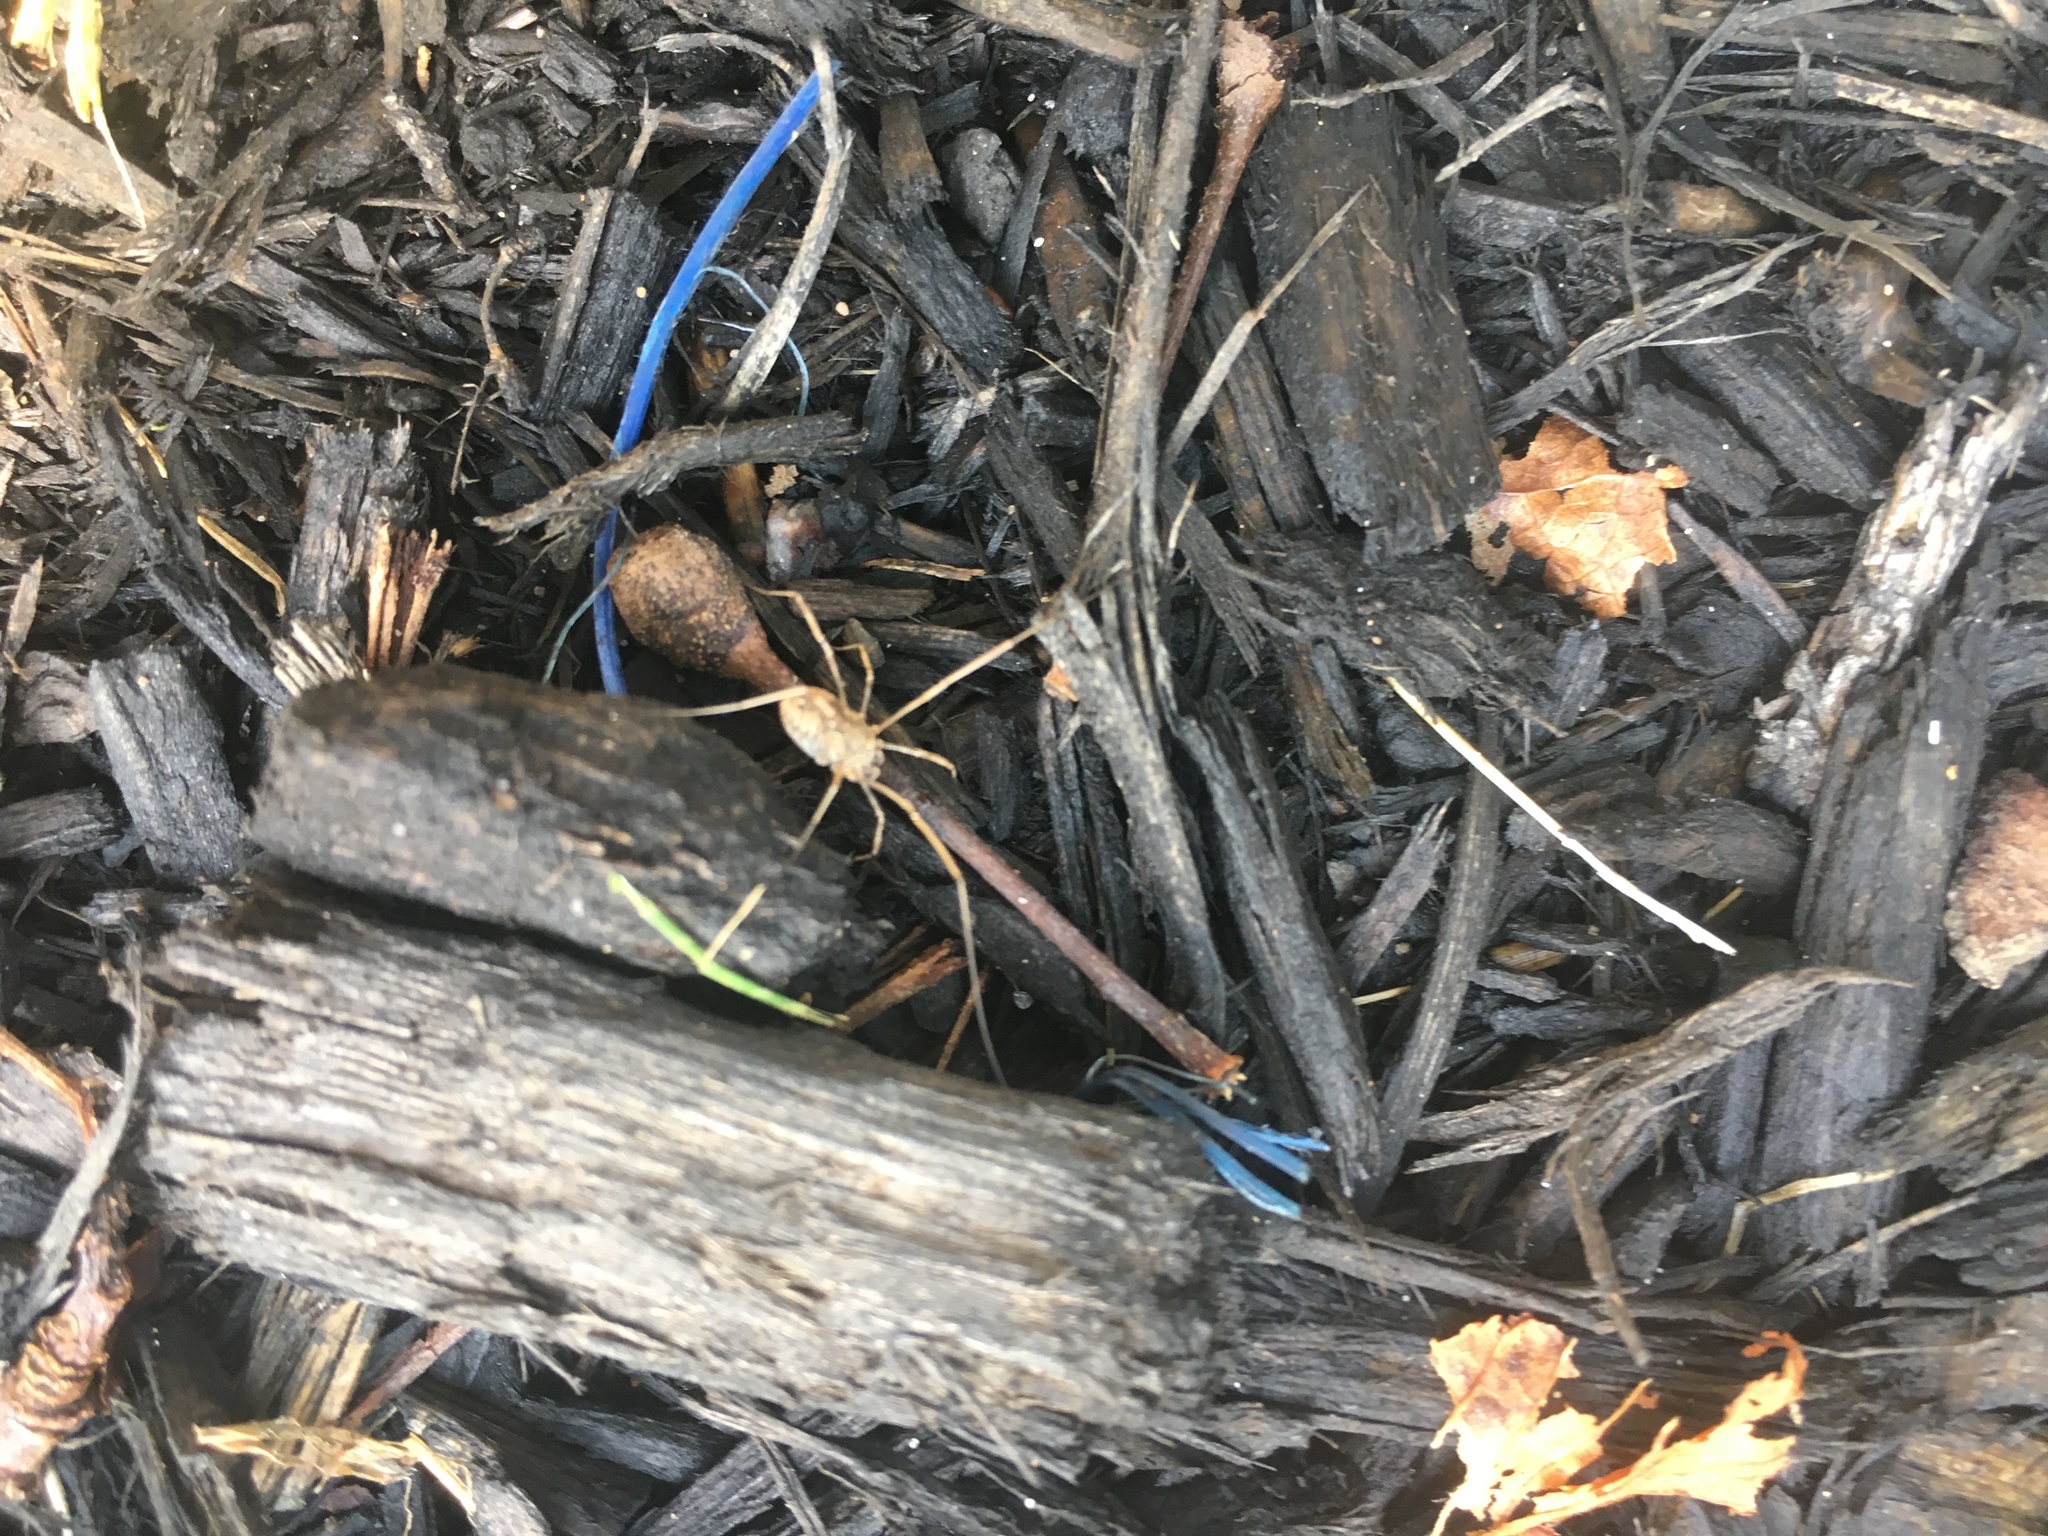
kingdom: Animalia
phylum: Arthropoda
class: Arachnida
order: Opiliones
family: Phalangiidae
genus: Phalangium
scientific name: Phalangium opilio
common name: Daddy longleg
